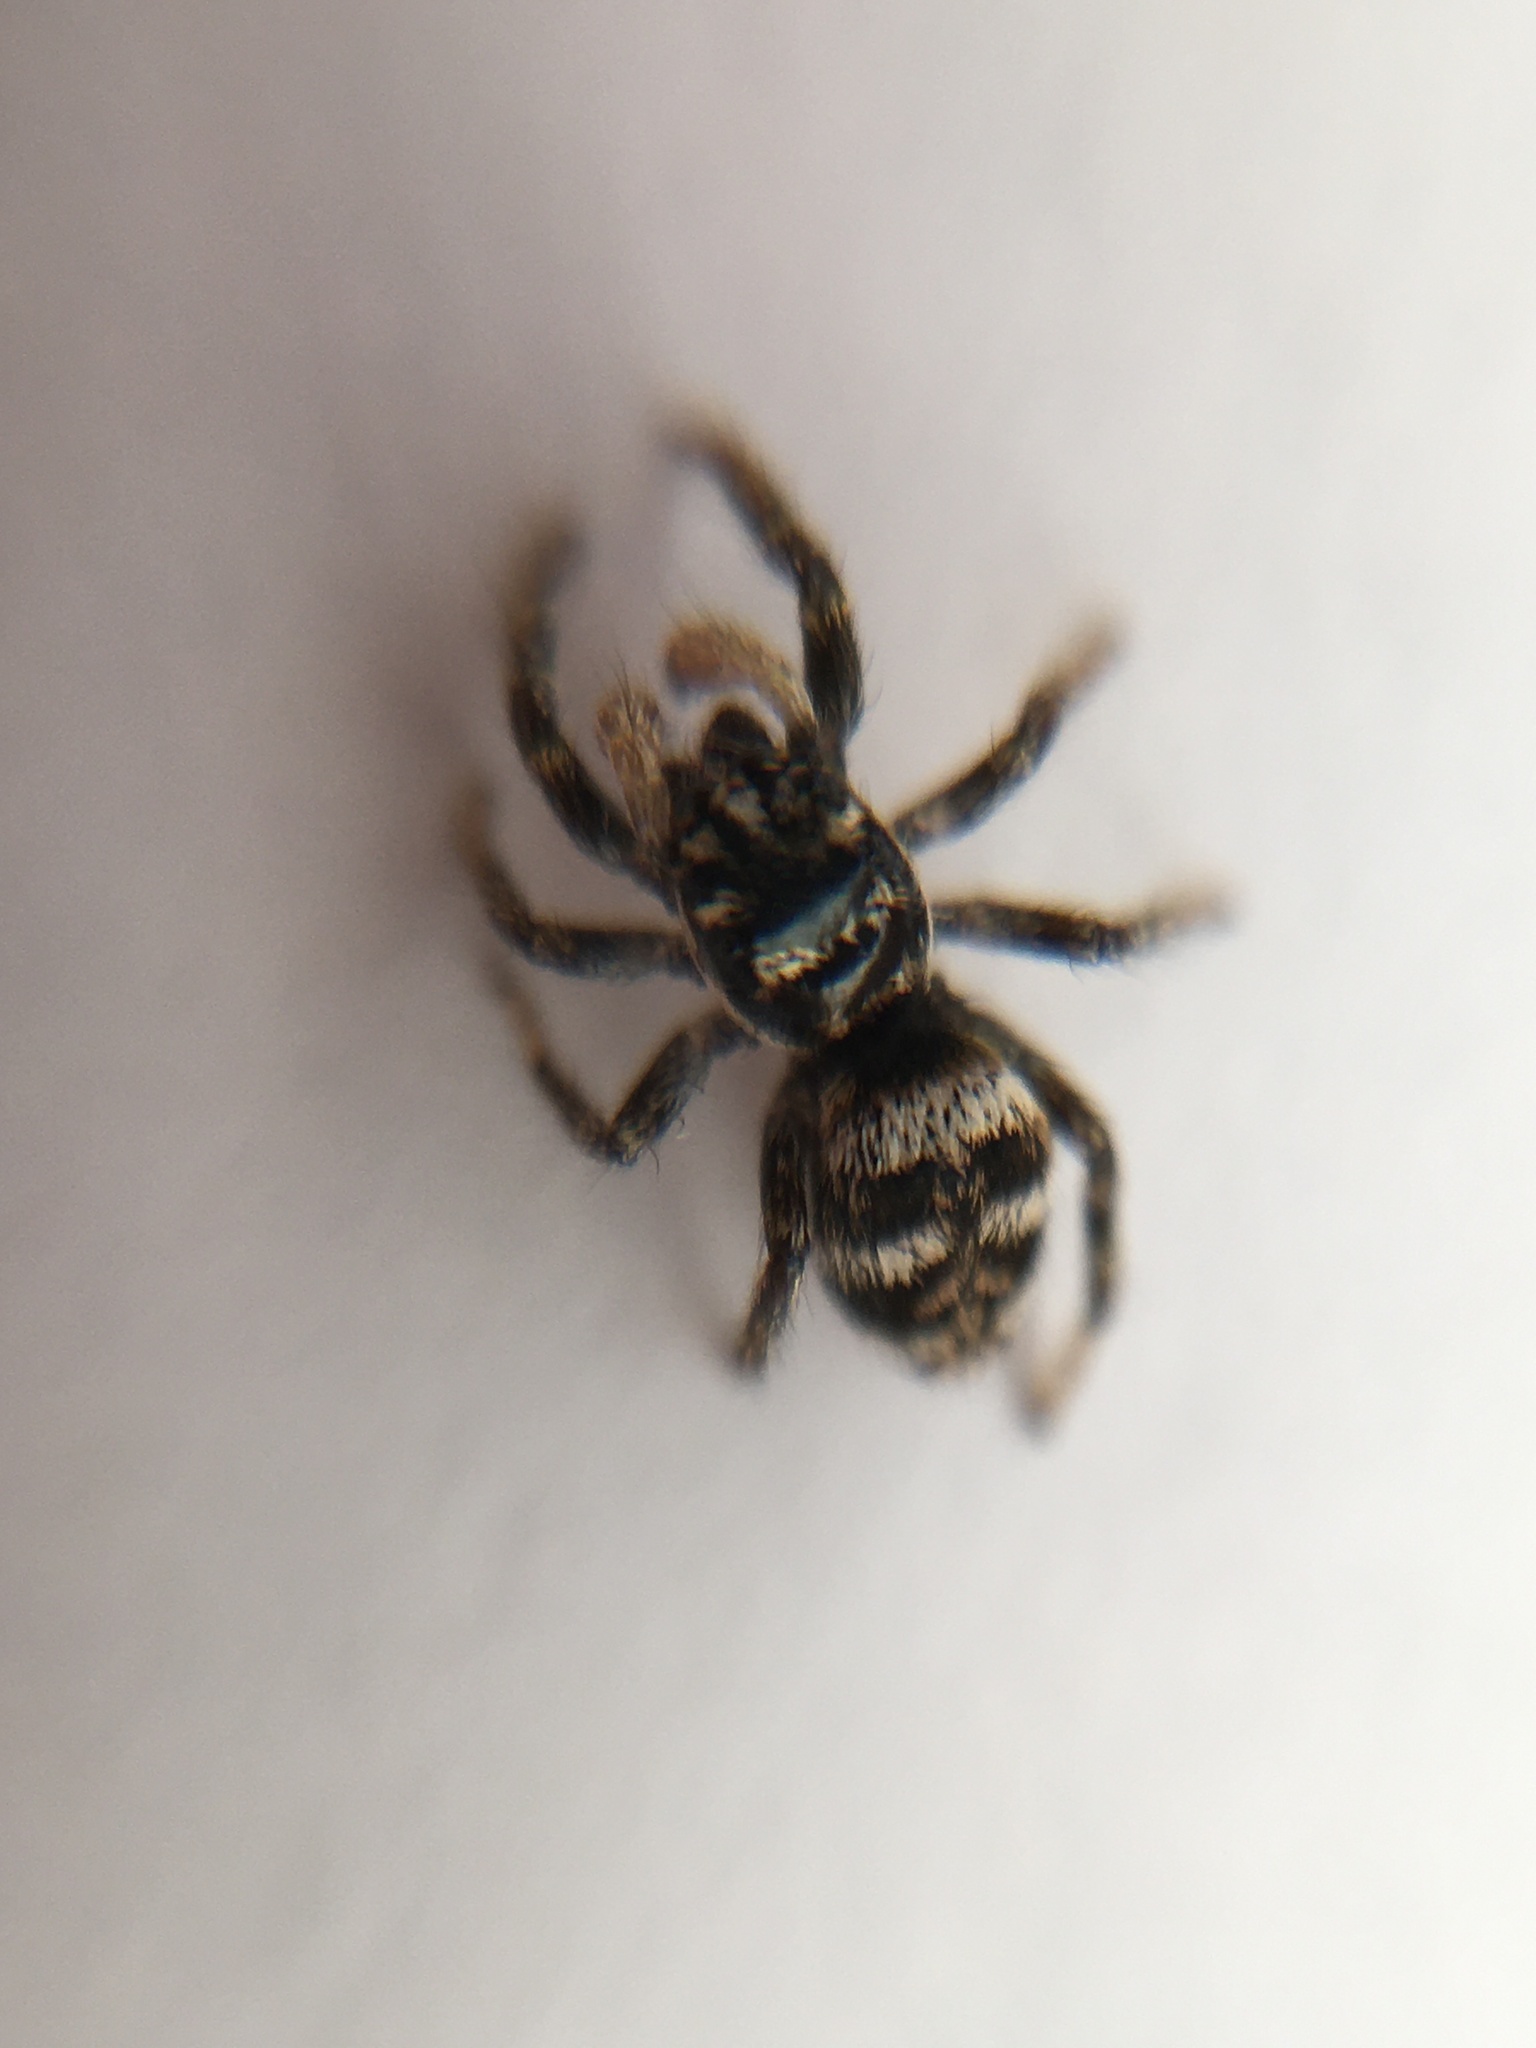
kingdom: Animalia
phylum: Arthropoda
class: Arachnida
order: Araneae
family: Salticidae
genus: Salticus
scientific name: Salticus scenicus
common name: Zebra jumper
